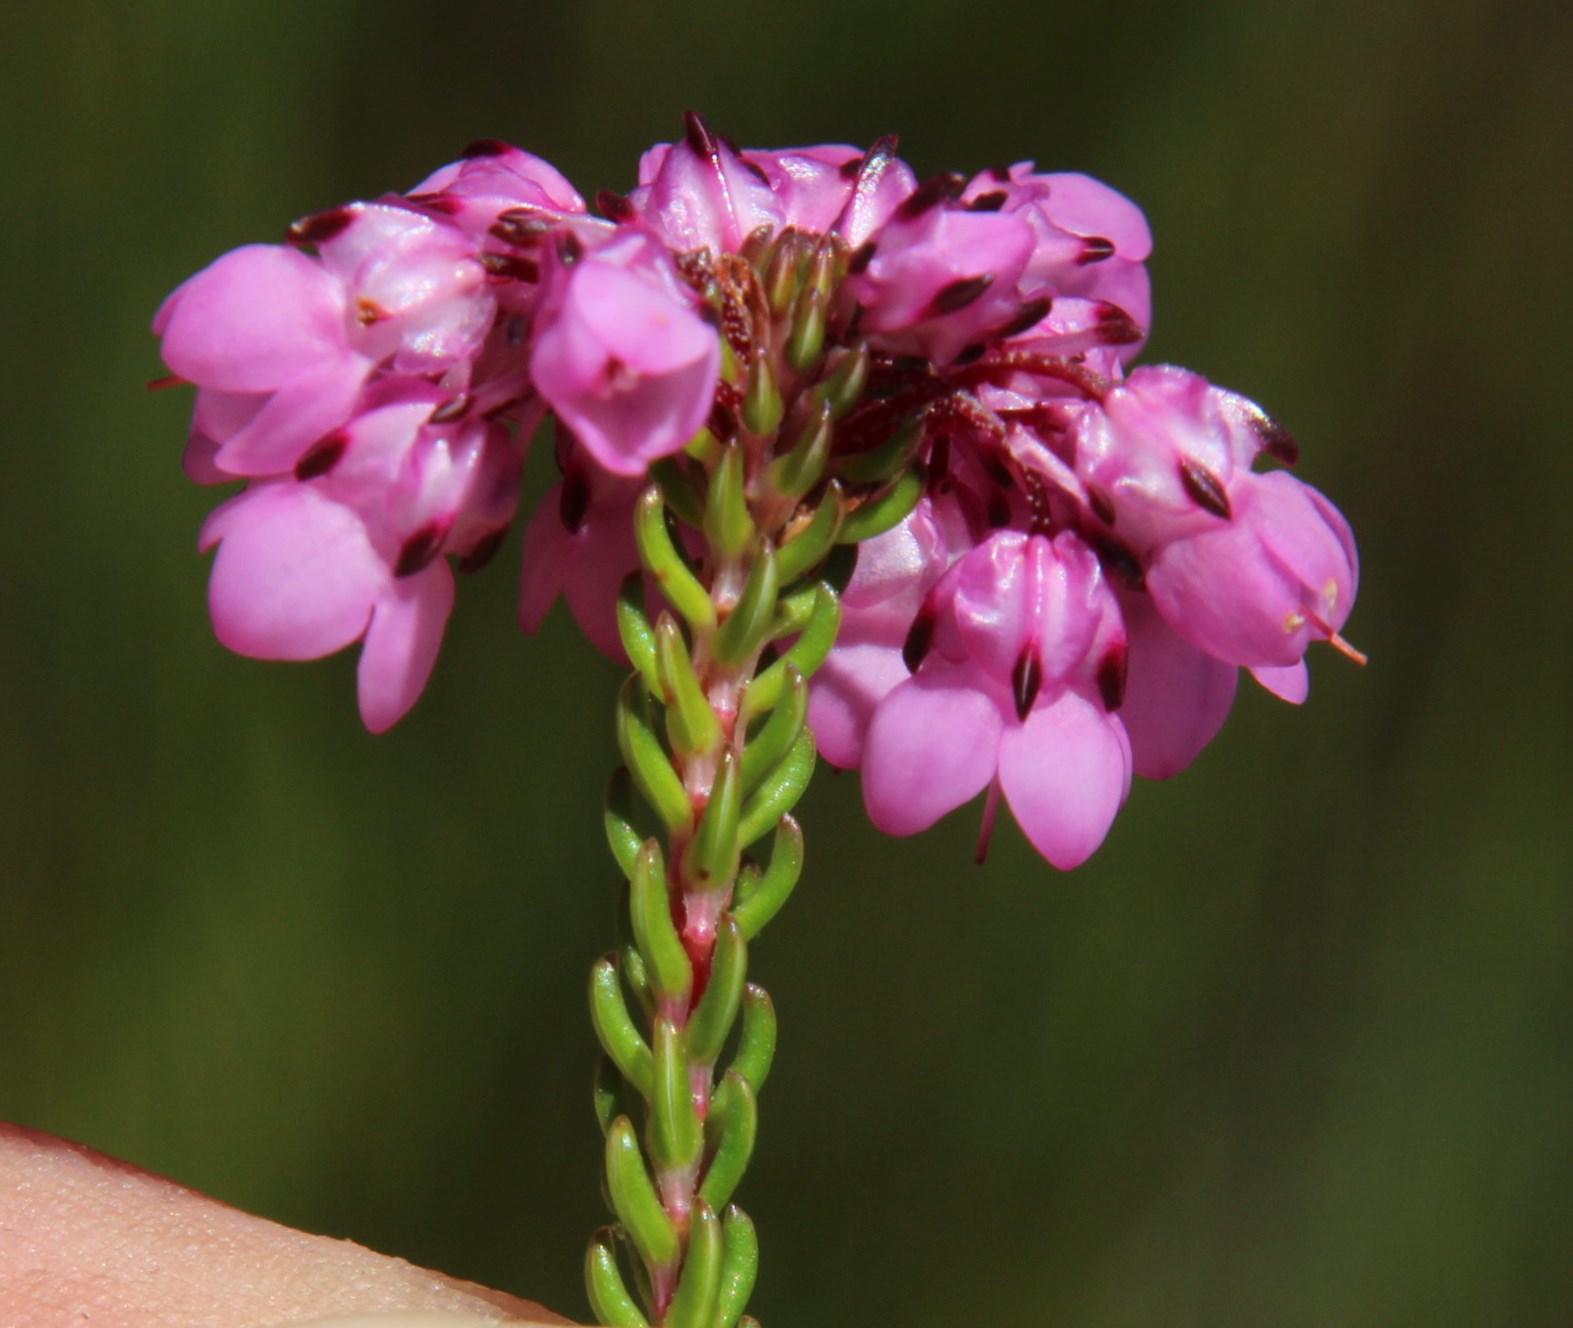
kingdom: Plantae
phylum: Tracheophyta
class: Magnoliopsida
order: Ericales
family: Ericaceae
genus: Erica
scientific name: Erica cubica
